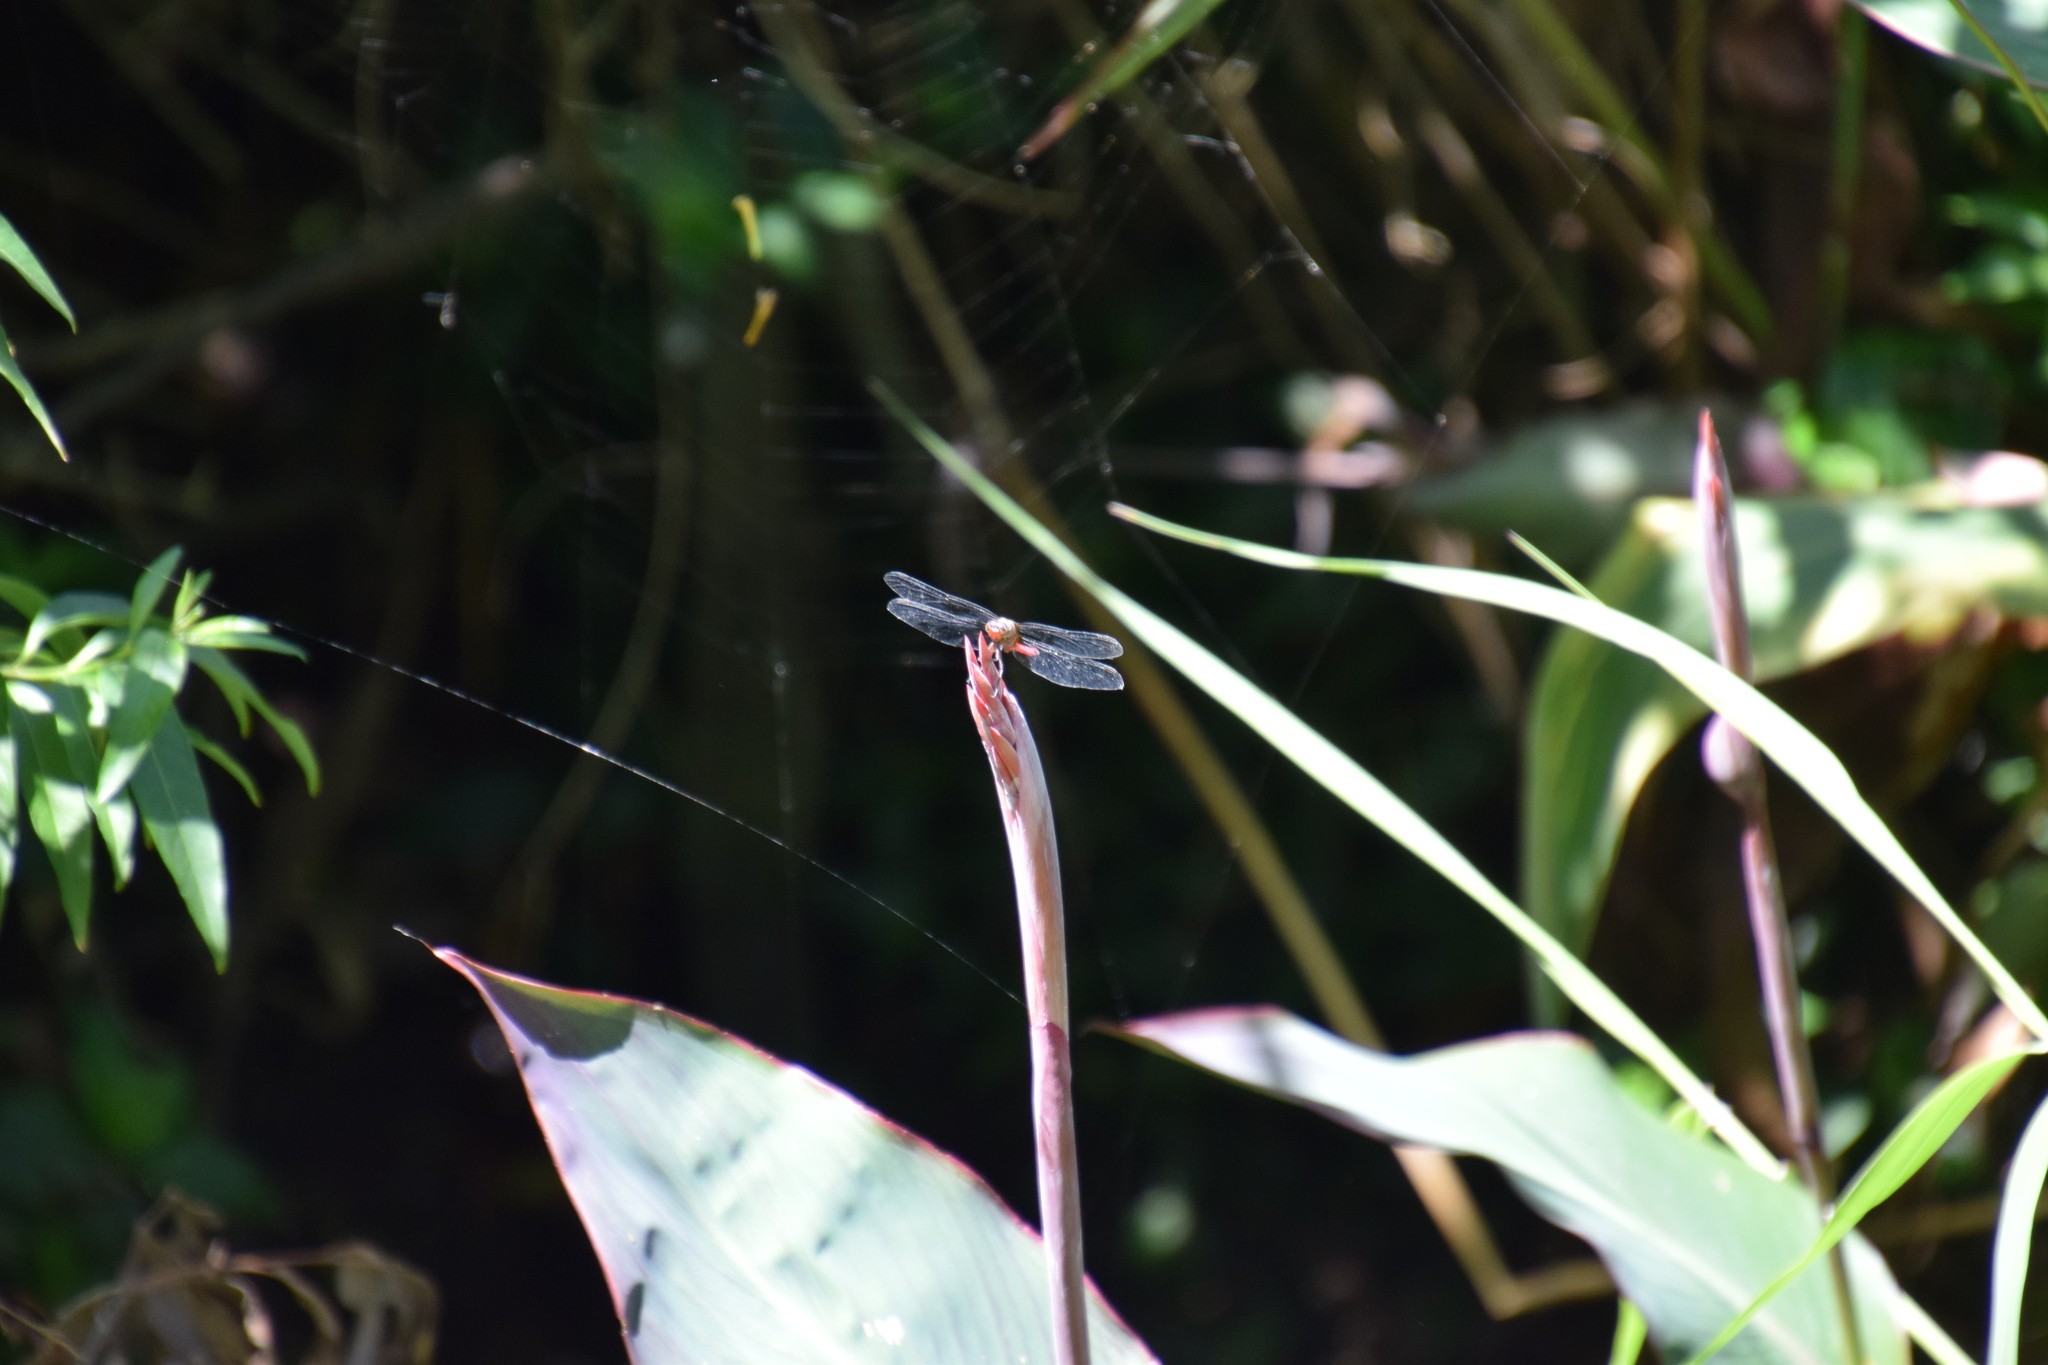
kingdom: Animalia
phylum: Arthropoda
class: Insecta
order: Odonata
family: Libellulidae
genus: Orthetrum
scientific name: Orthetrum villosovittatum
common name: Firery skimmer
